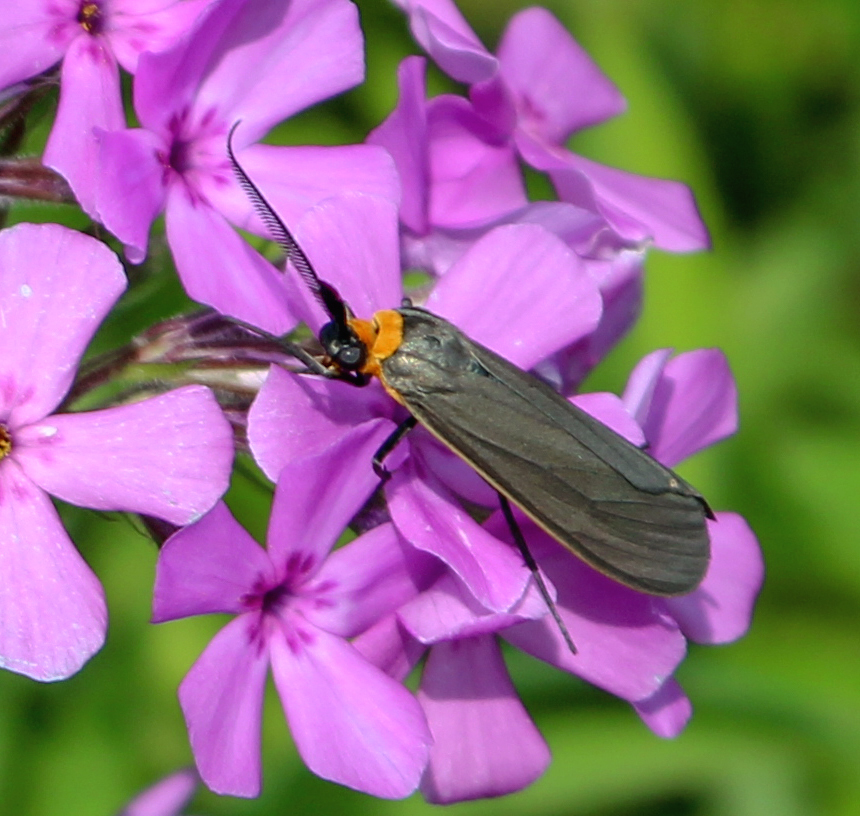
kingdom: Animalia
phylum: Arthropoda
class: Insecta
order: Lepidoptera
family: Erebidae
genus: Cisseps
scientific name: Cisseps fulvicollis
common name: Yellow-collared scape moth
